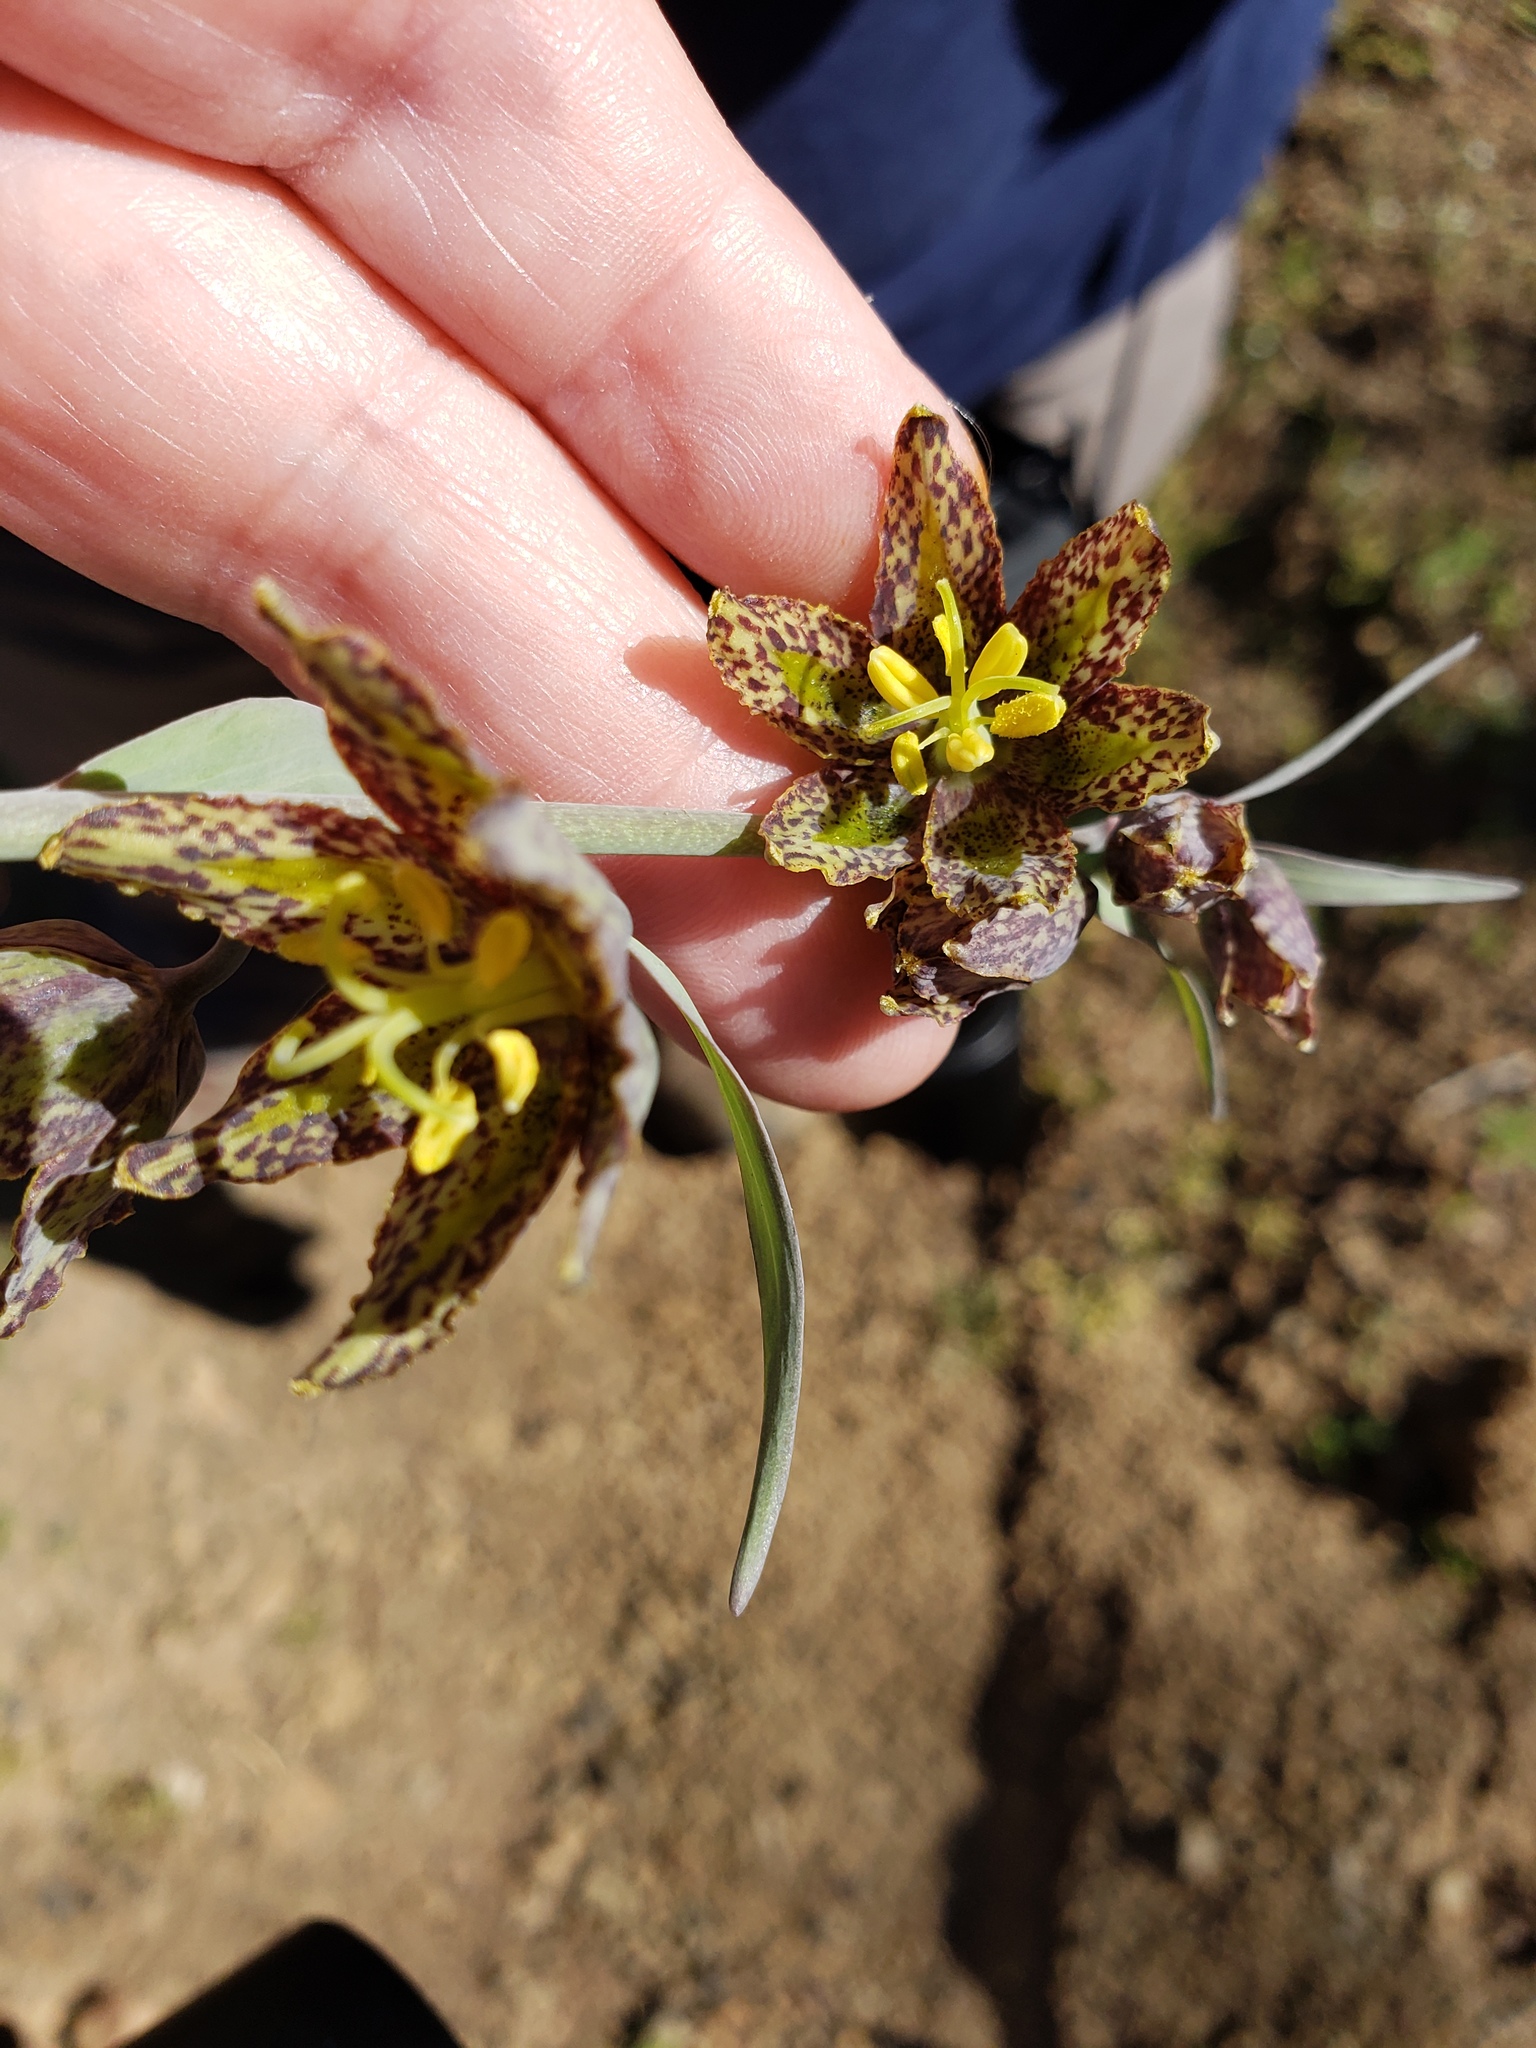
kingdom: Plantae
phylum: Tracheophyta
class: Liliopsida
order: Liliales
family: Liliaceae
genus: Fritillaria
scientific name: Fritillaria affinis
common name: Ojai fritillary
